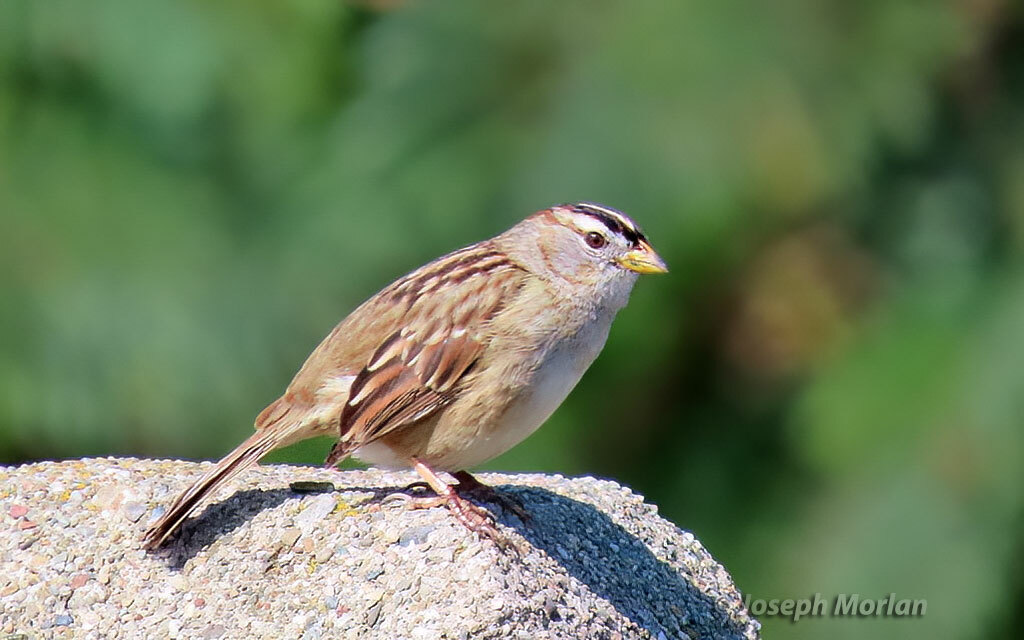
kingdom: Animalia
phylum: Chordata
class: Aves
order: Passeriformes
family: Passerellidae
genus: Zonotrichia
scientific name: Zonotrichia leucophrys
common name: White-crowned sparrow
